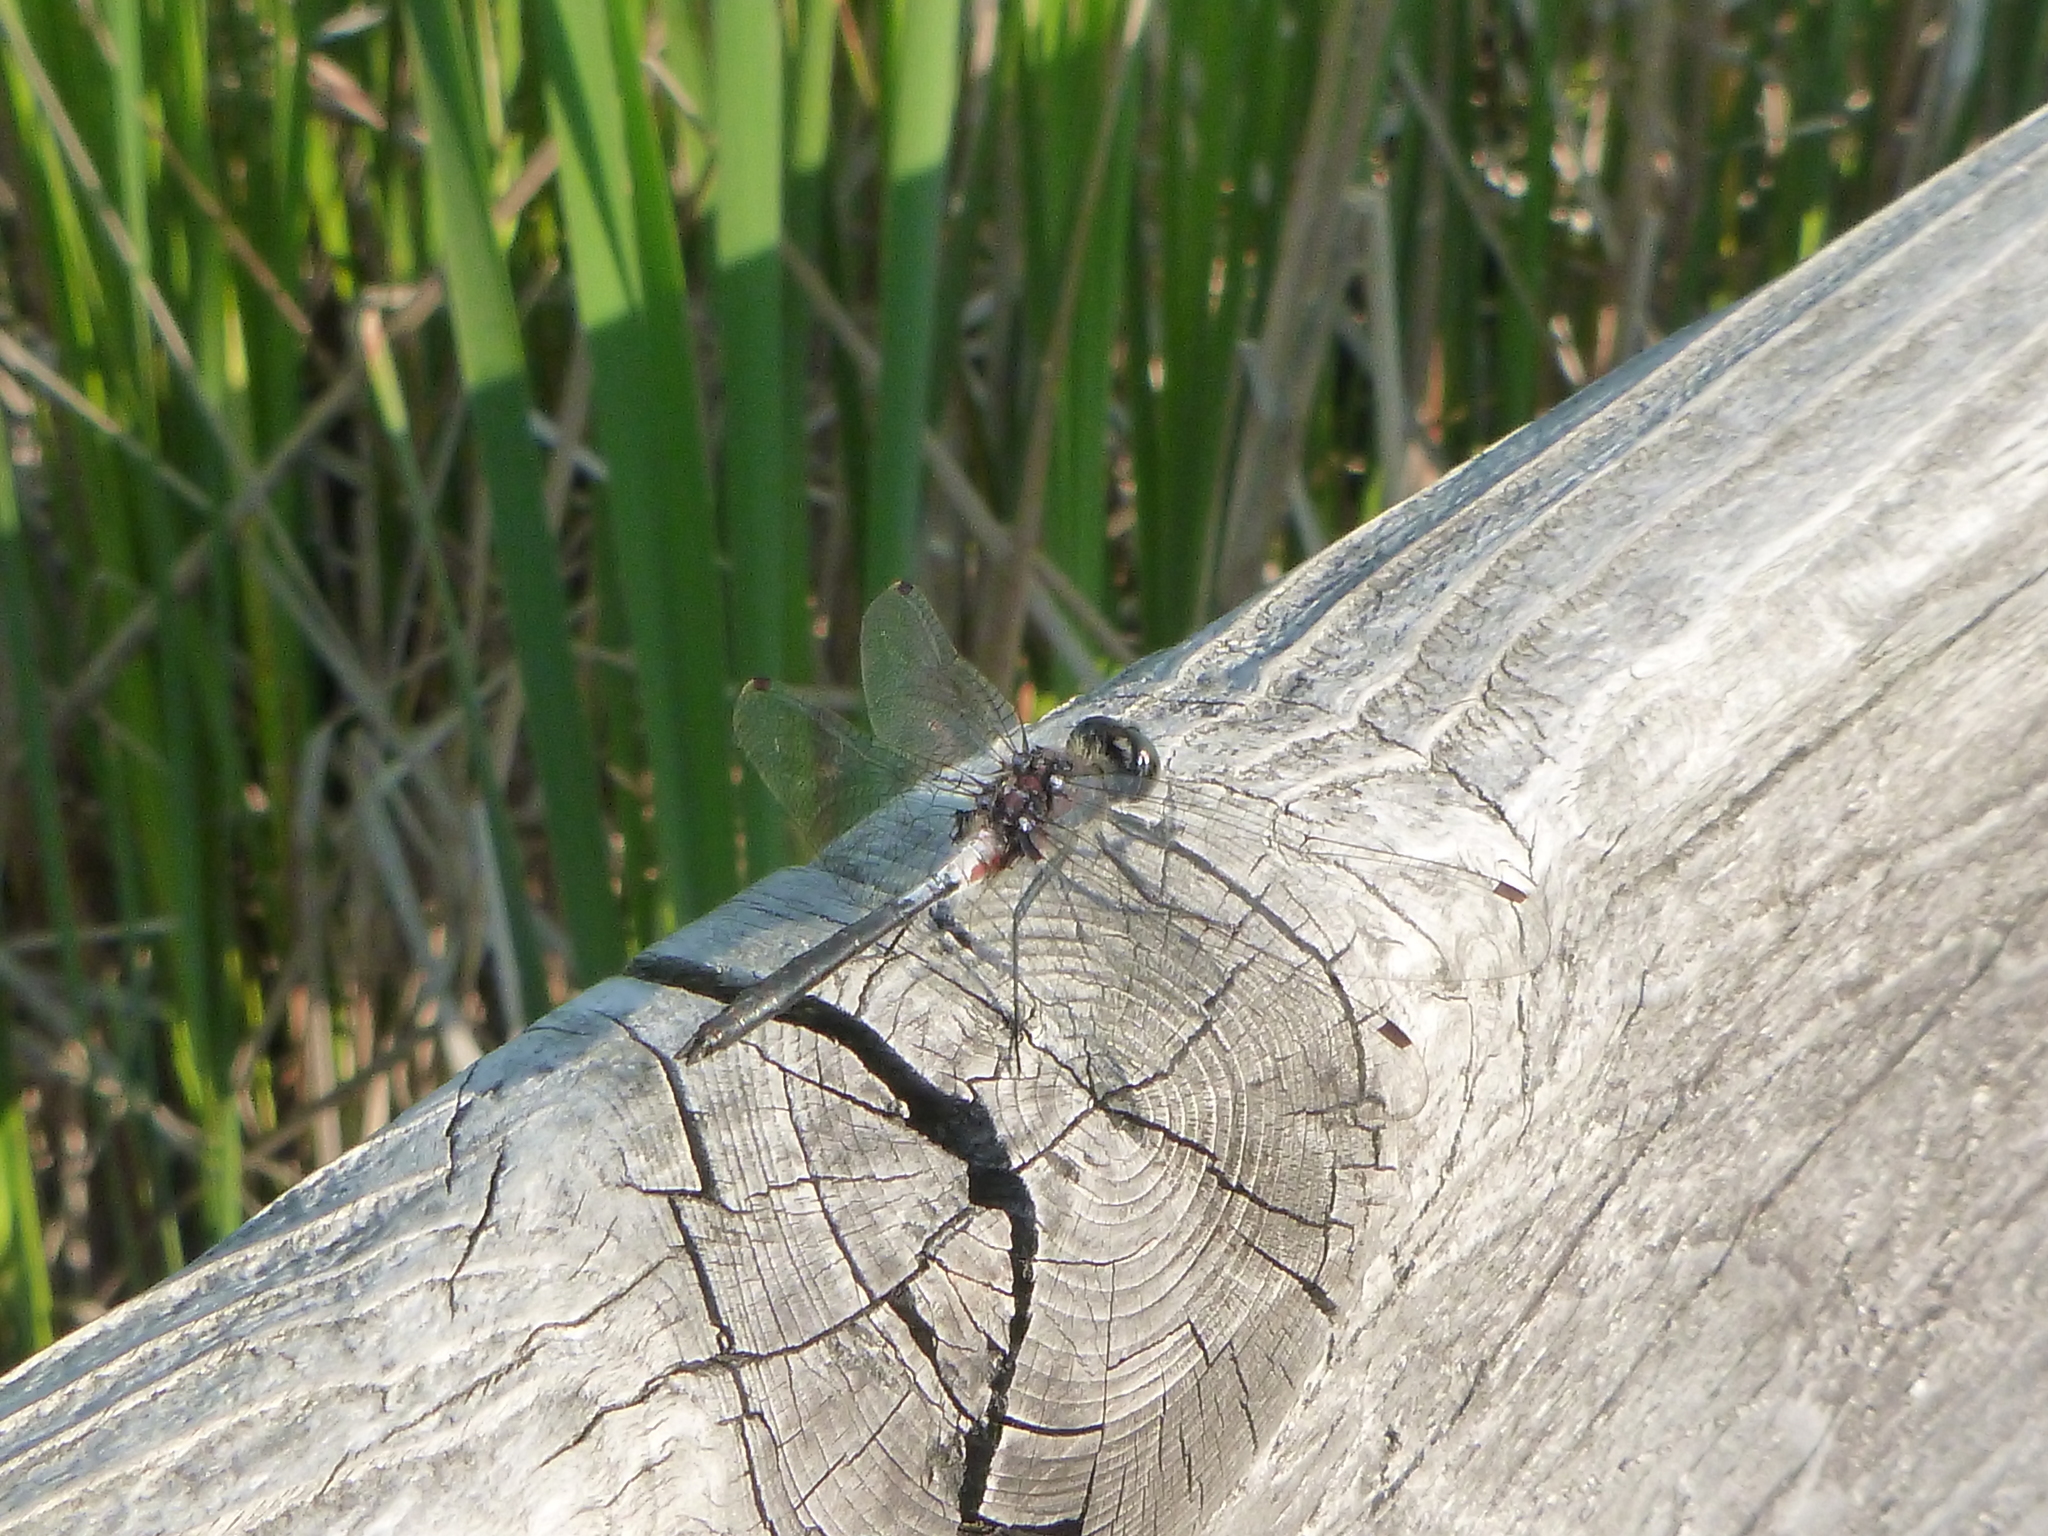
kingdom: Animalia
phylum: Arthropoda
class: Insecta
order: Odonata
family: Libellulidae
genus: Leucorrhinia
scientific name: Leucorrhinia proxima
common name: Belted whiteface
